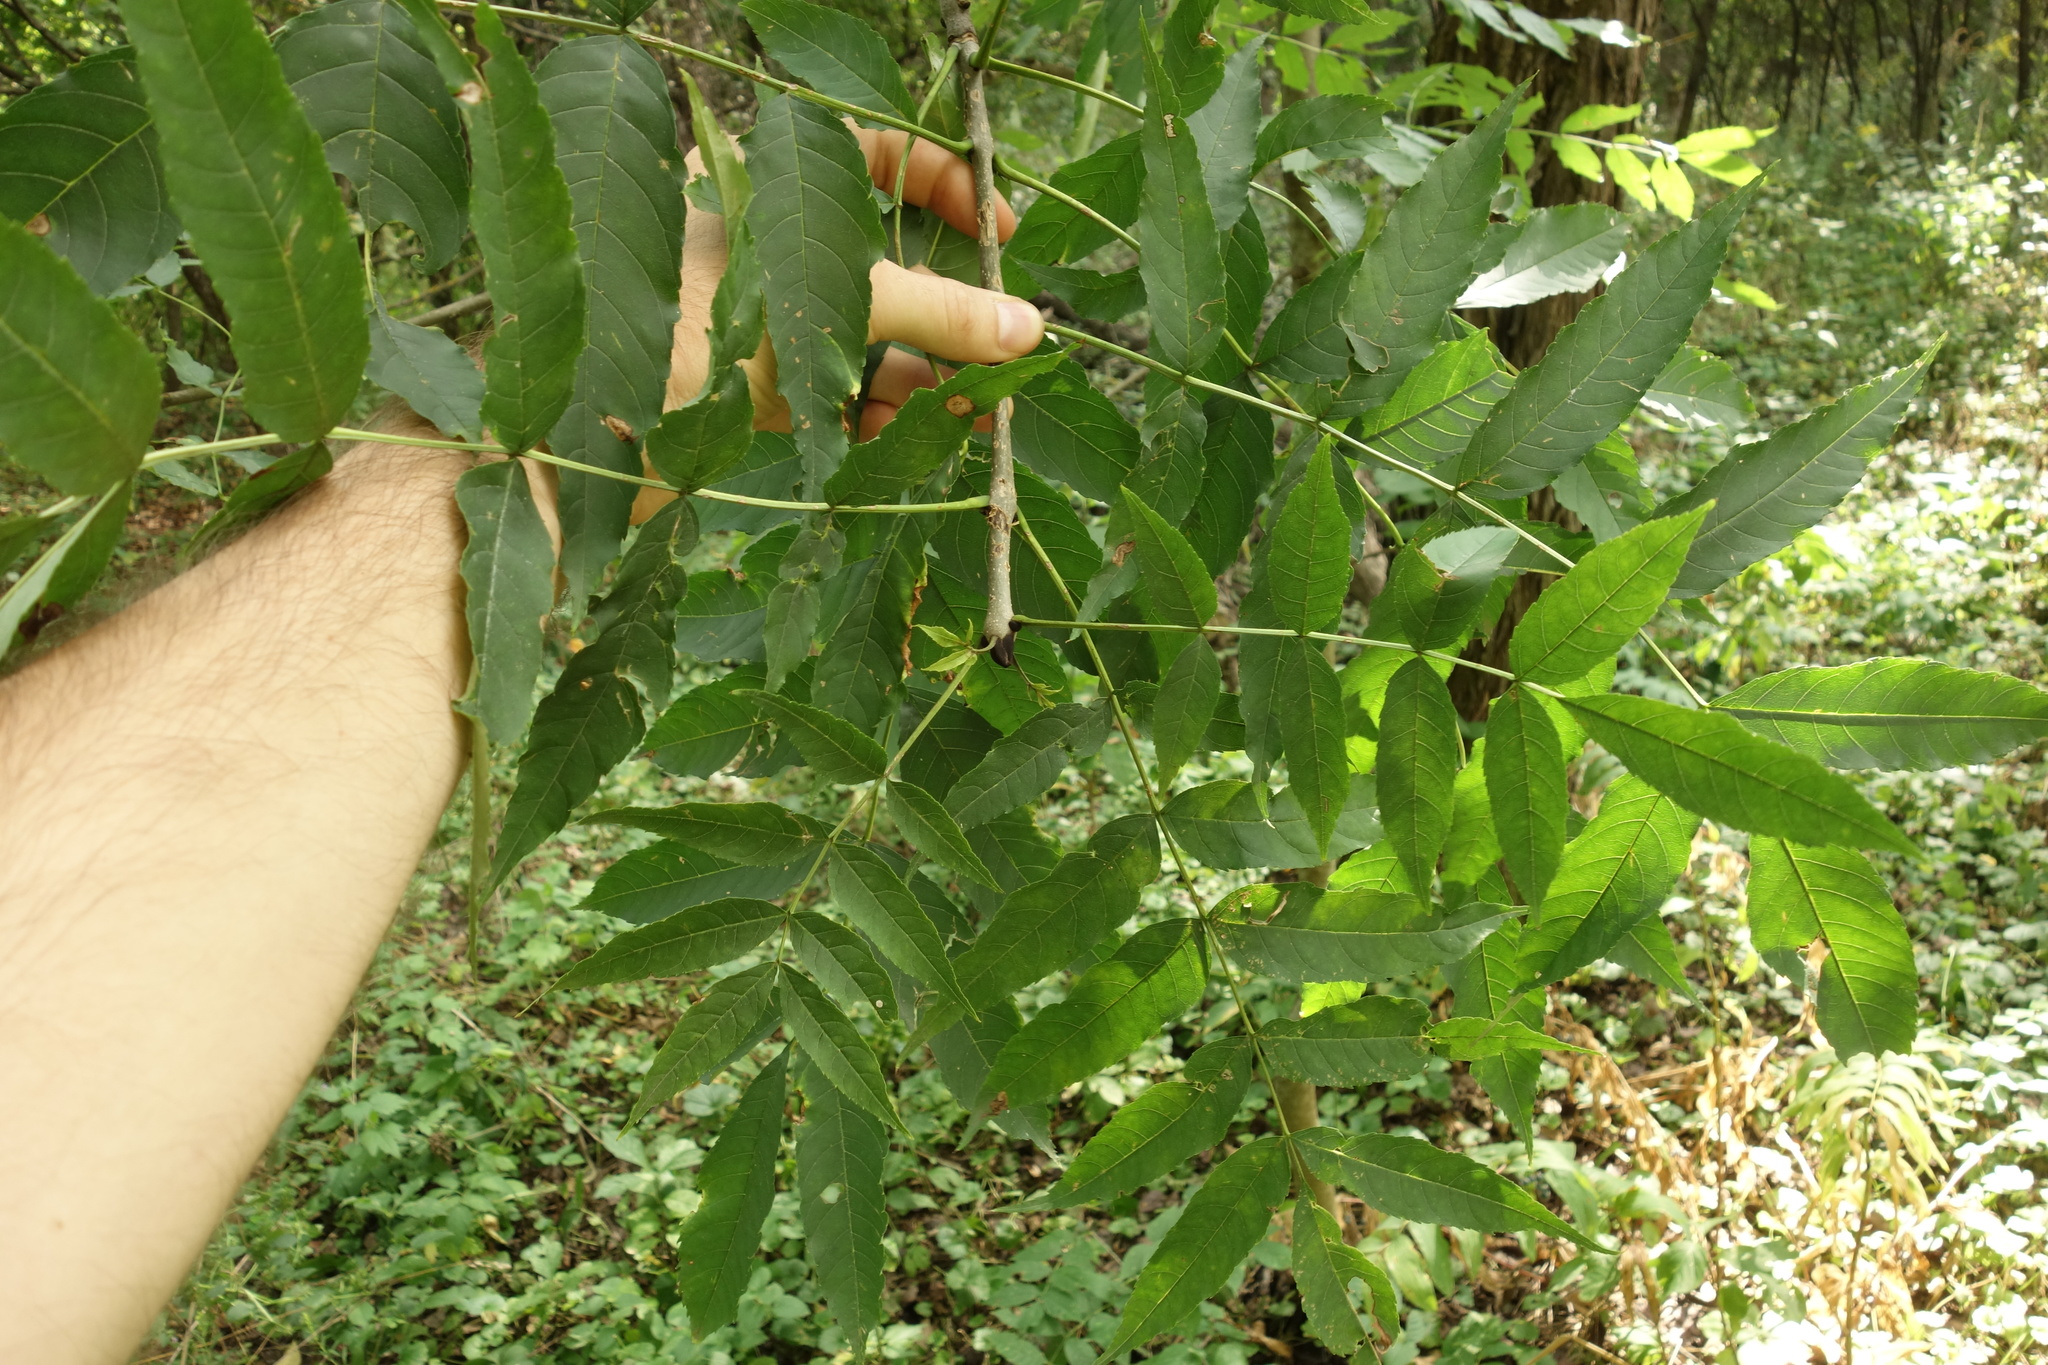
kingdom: Plantae
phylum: Tracheophyta
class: Magnoliopsida
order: Lamiales
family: Oleaceae
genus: Fraxinus
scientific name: Fraxinus excelsior
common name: European ash
